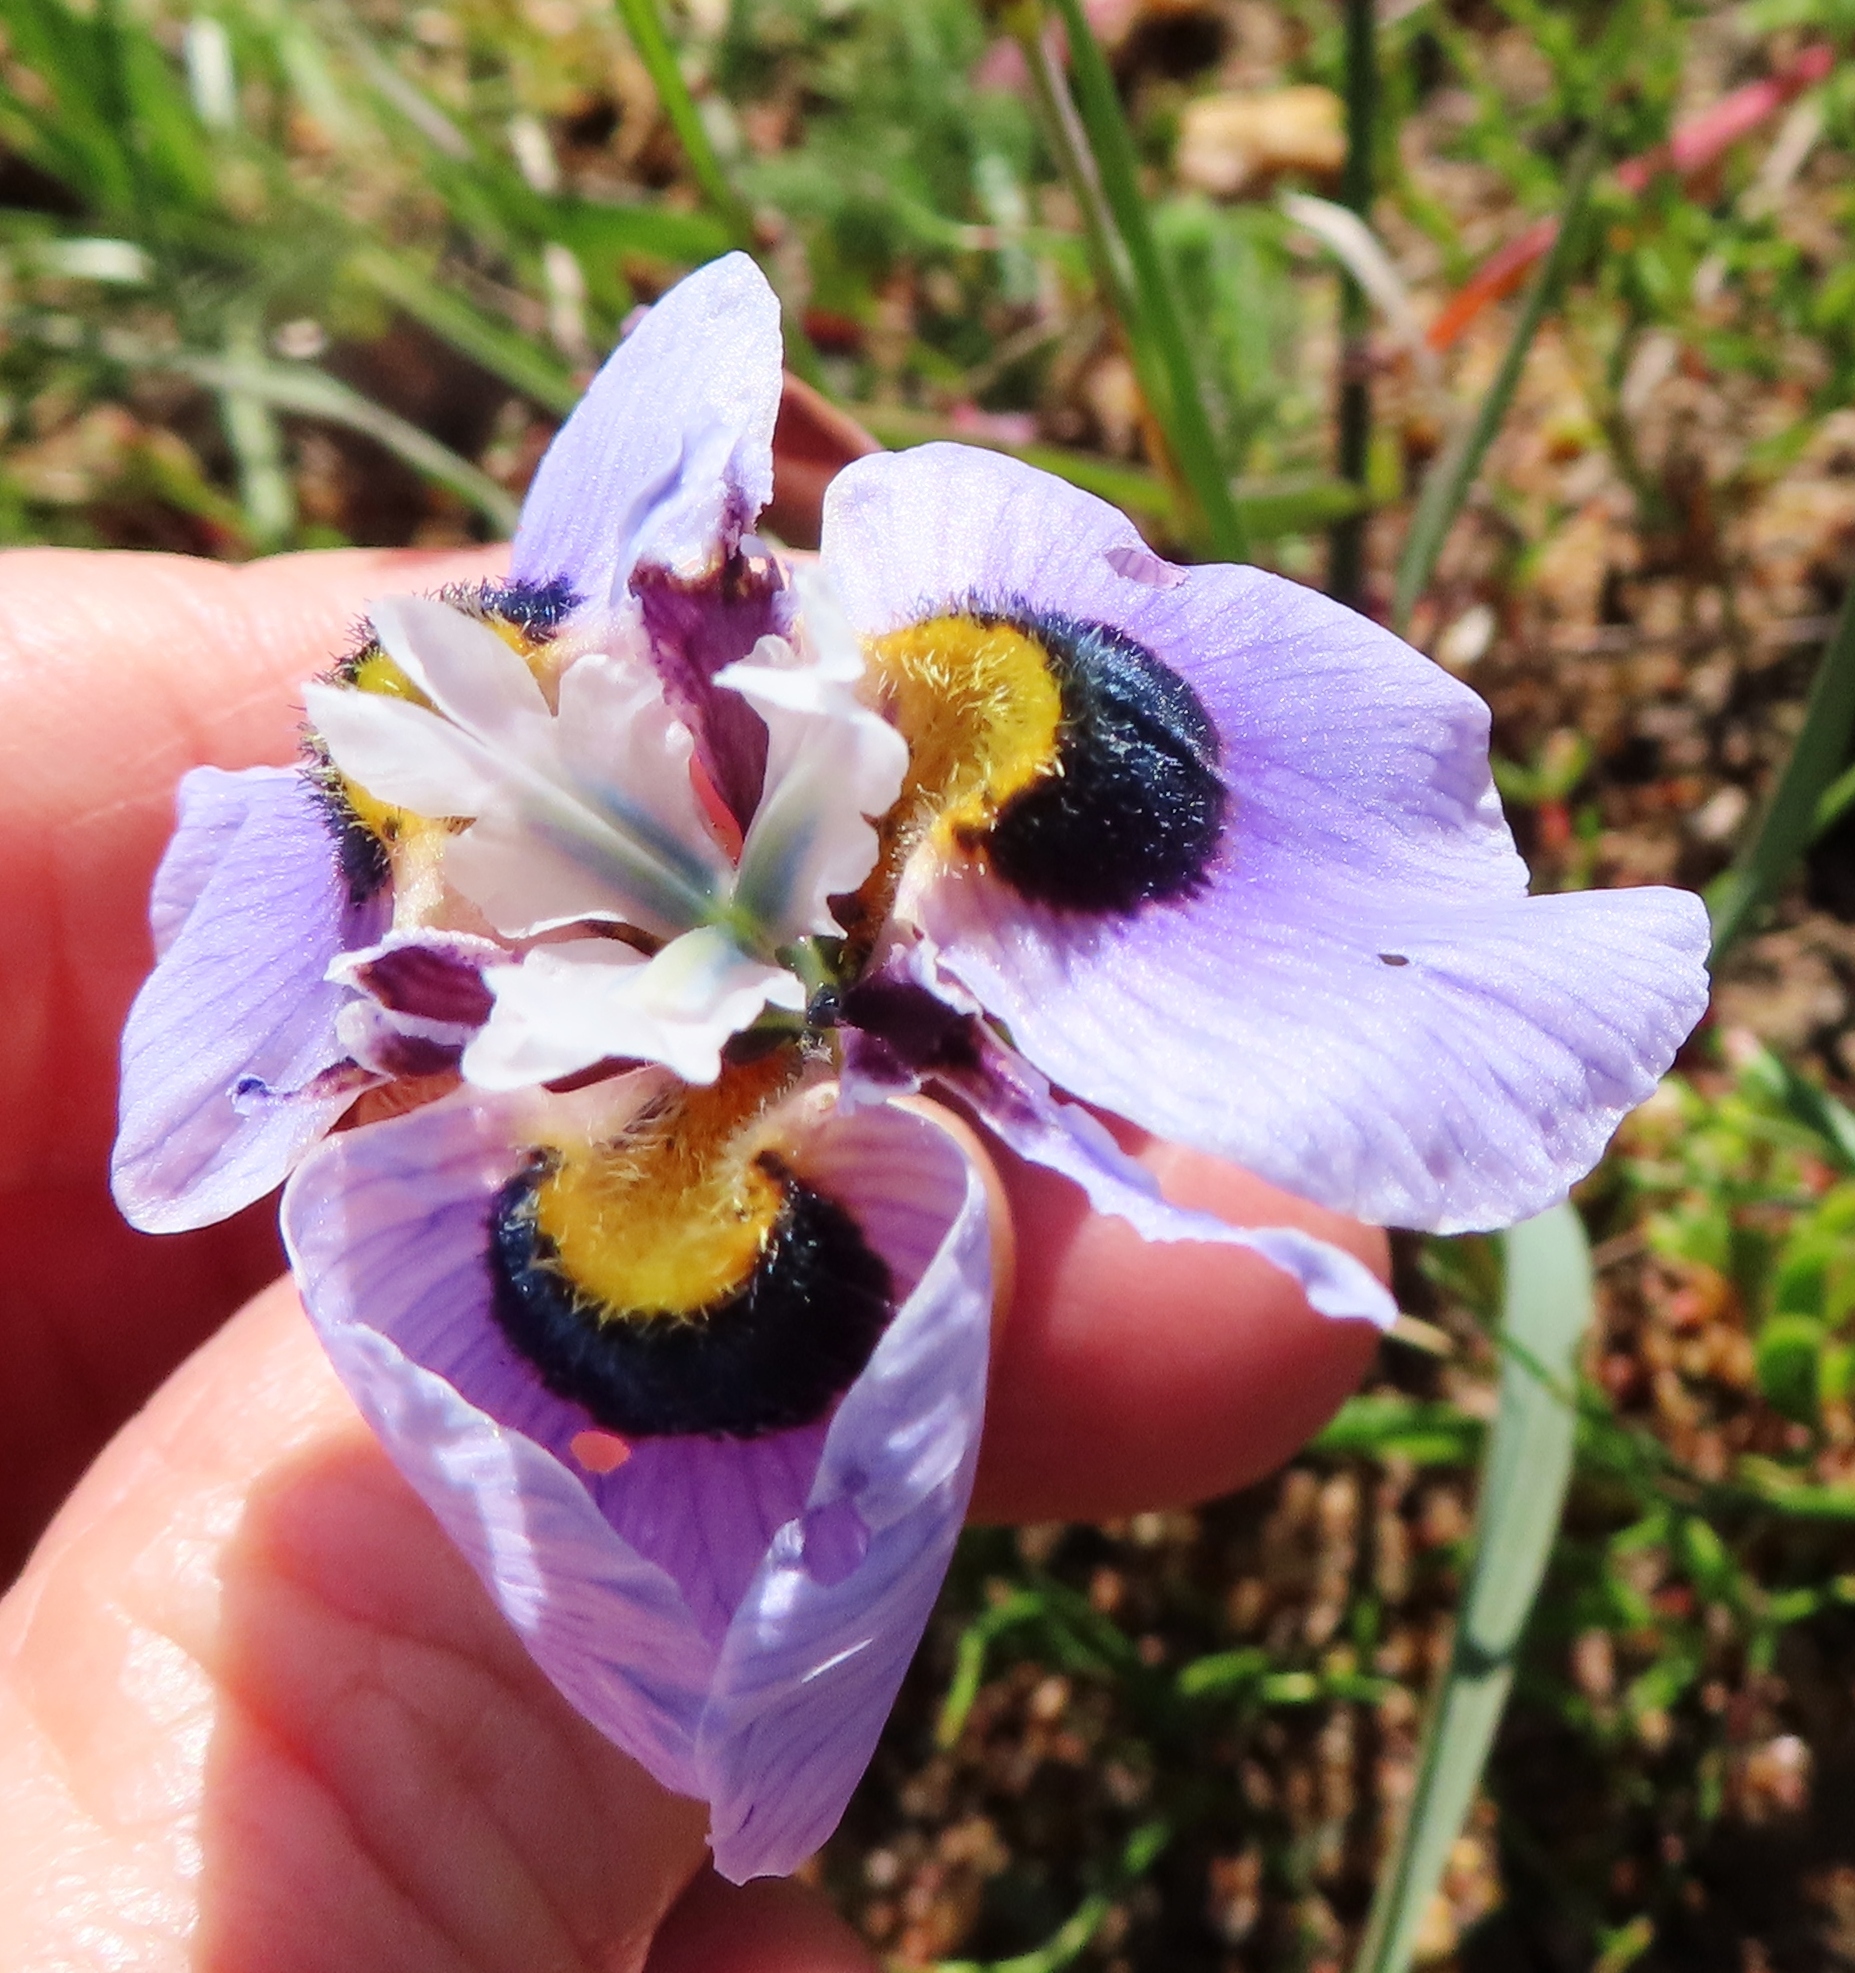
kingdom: Plantae
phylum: Tracheophyta
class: Liliopsida
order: Asparagales
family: Iridaceae
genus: Moraea
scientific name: Moraea villosa
